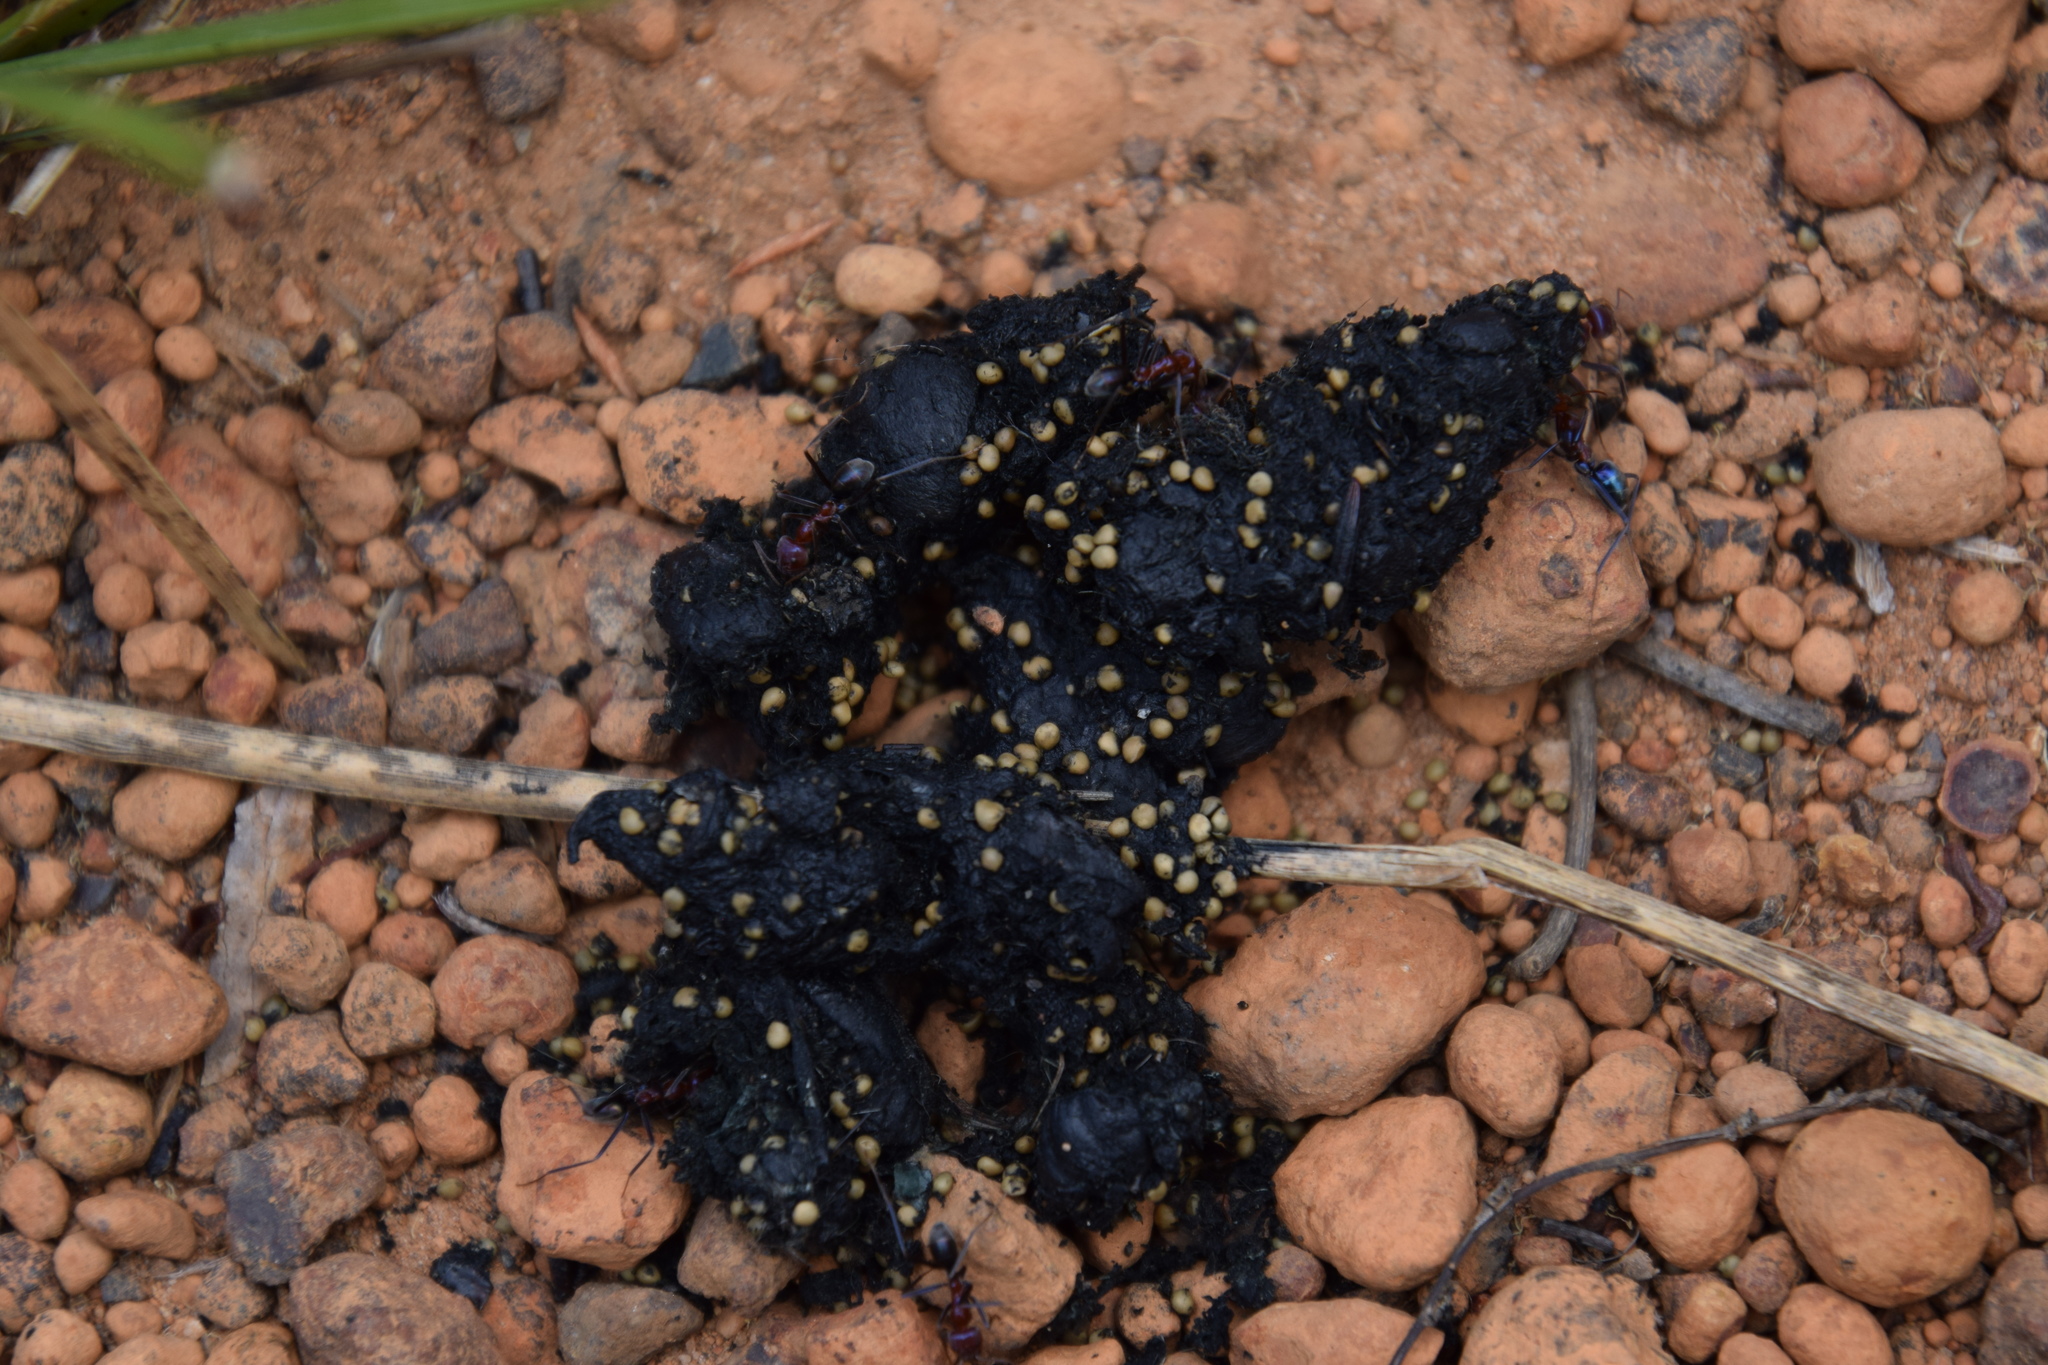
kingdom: Animalia
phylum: Chordata
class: Aves
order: Casuariiformes
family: Dromaiidae
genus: Dromaius
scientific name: Dromaius novaehollandiae
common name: Emu
